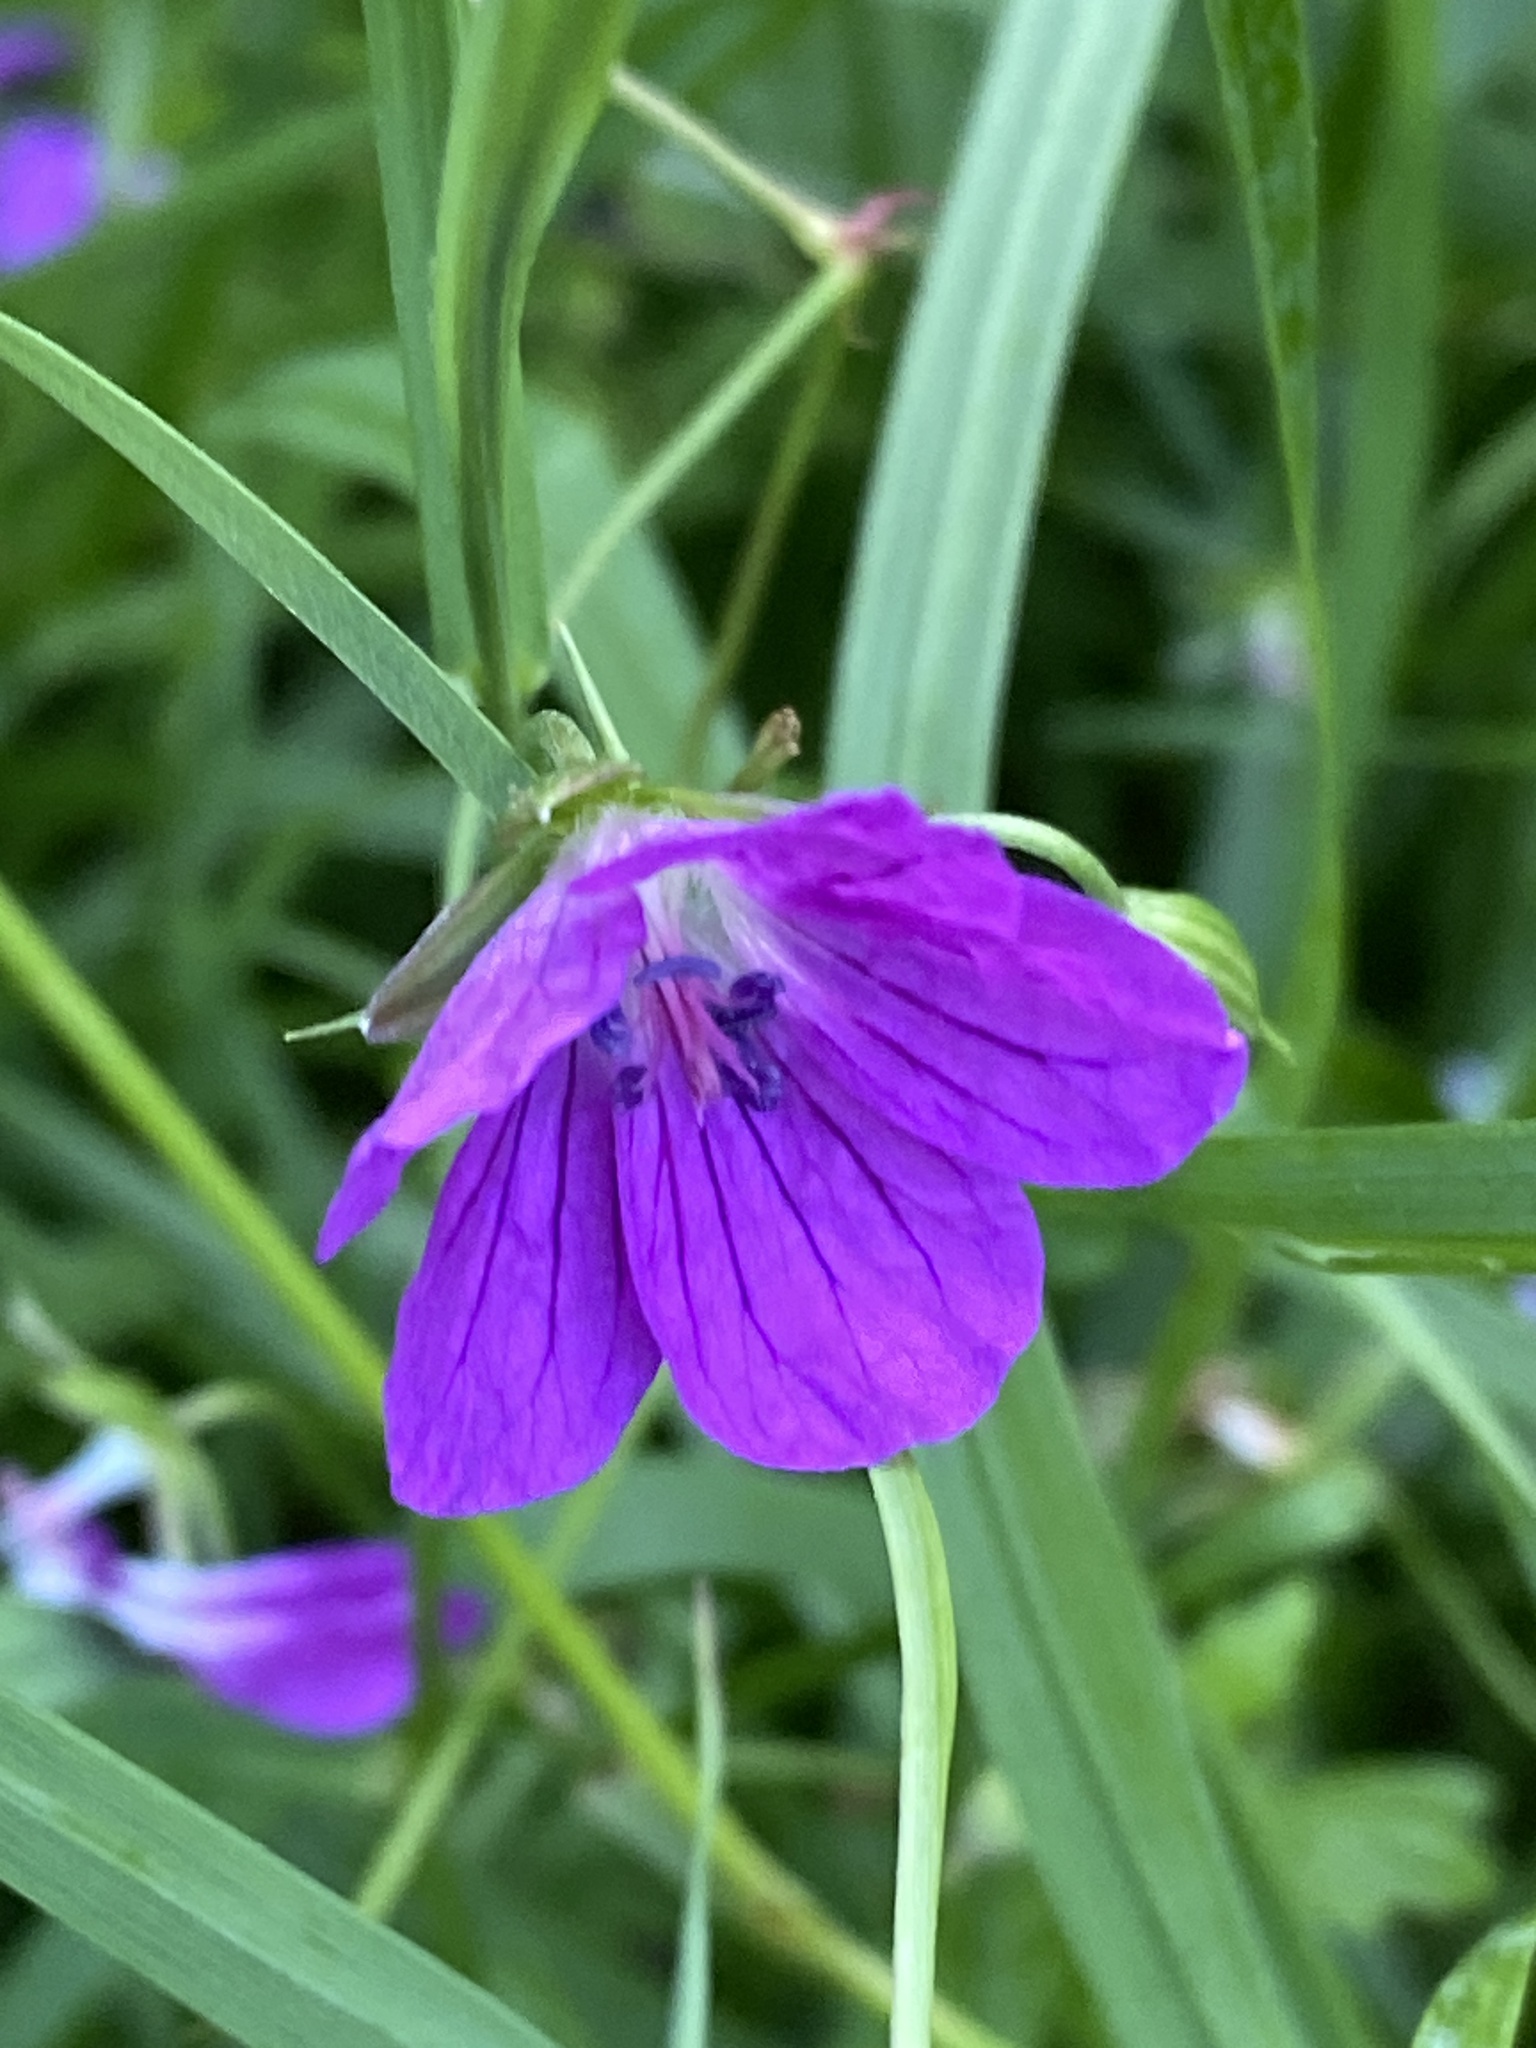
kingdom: Plantae
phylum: Tracheophyta
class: Magnoliopsida
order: Geraniales
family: Geraniaceae
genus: Geranium
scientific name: Geranium palustre
